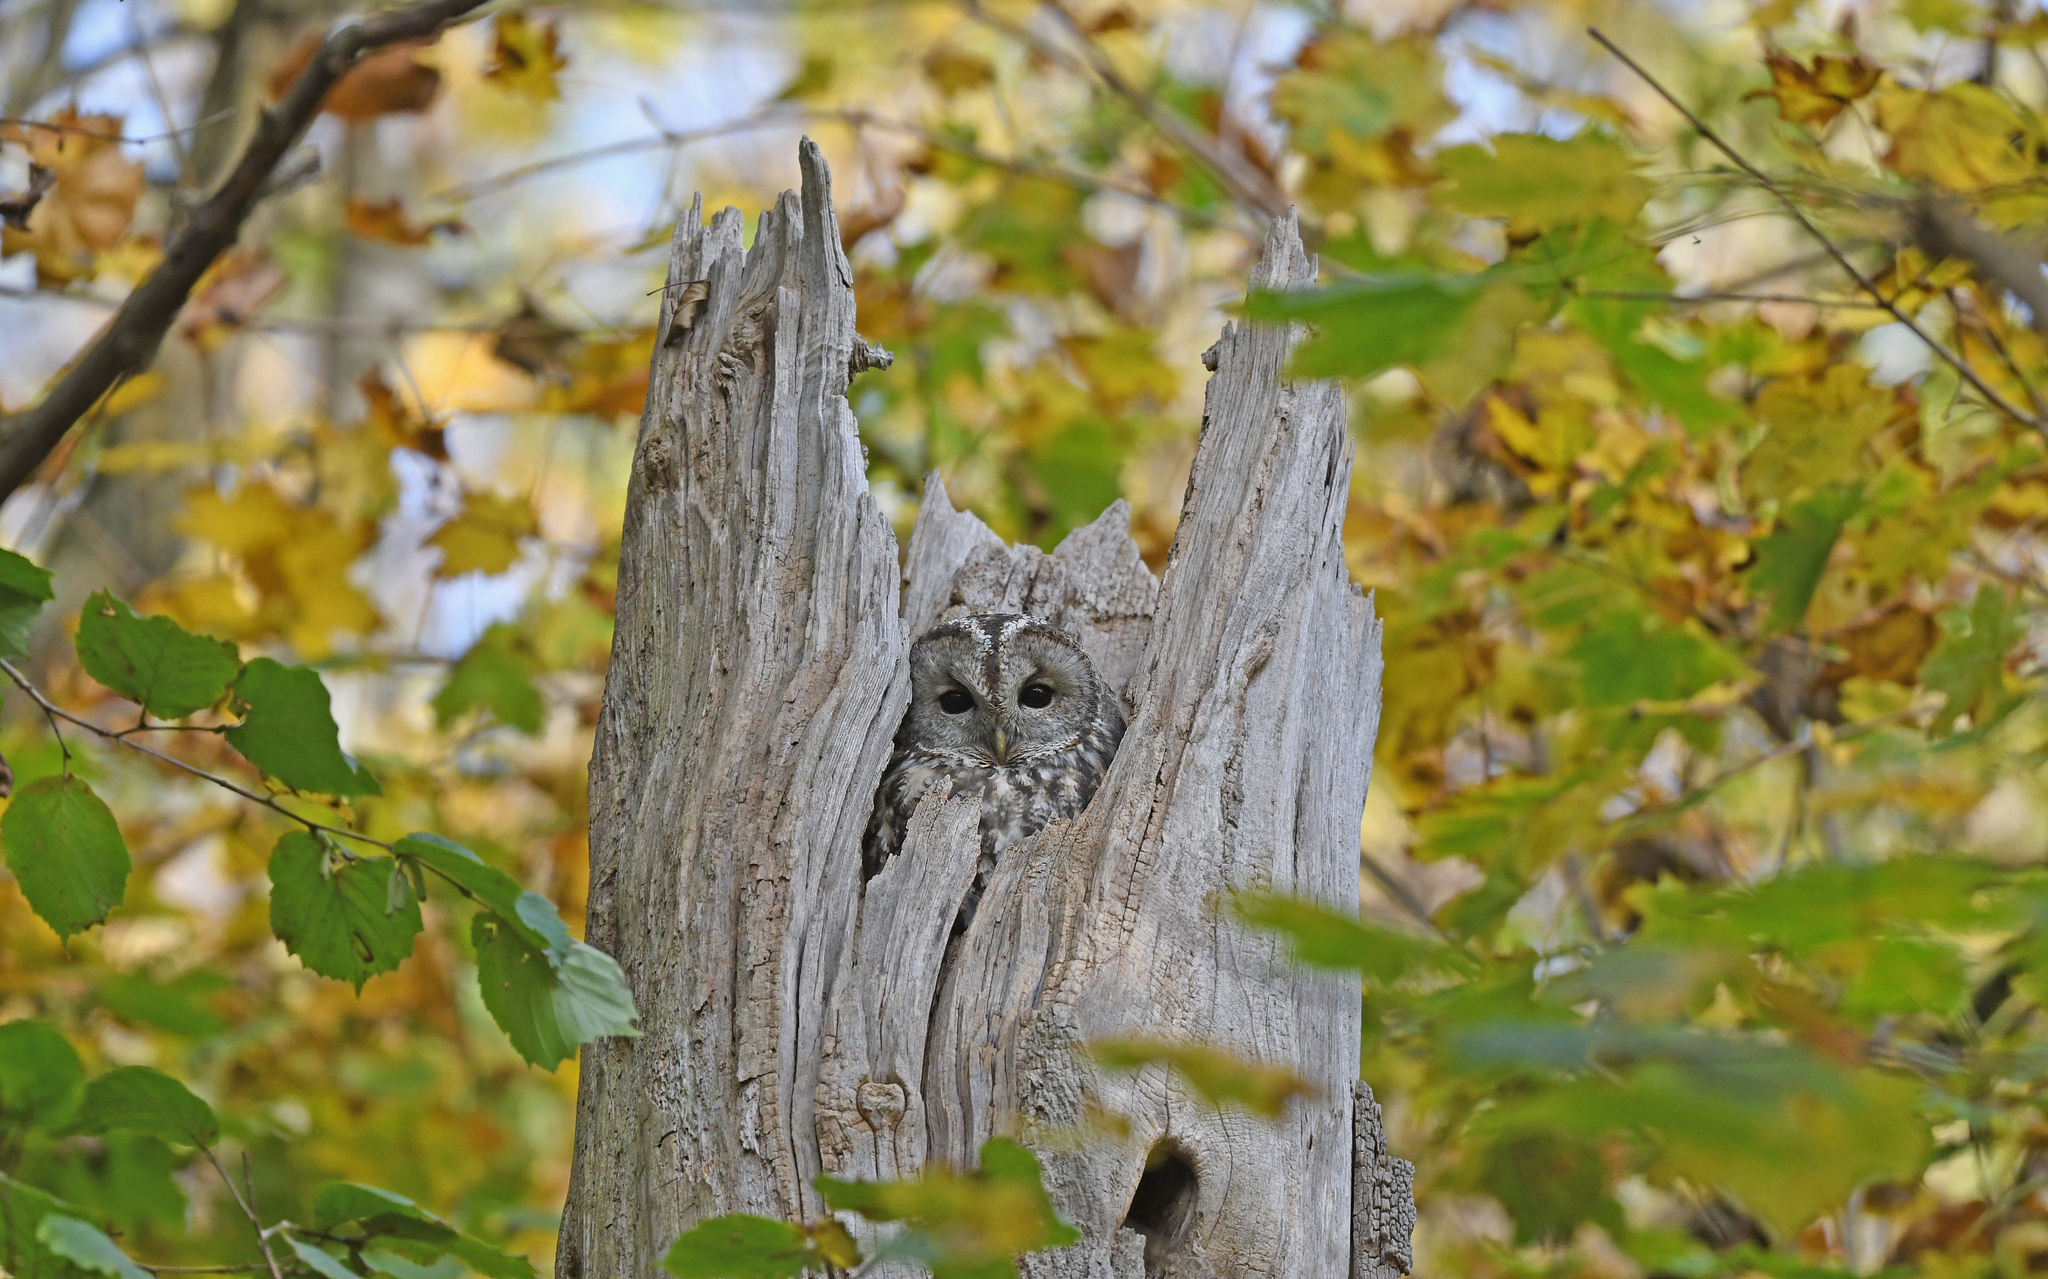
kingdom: Animalia
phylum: Chordata
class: Aves
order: Strigiformes
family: Strigidae
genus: Strix
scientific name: Strix aluco
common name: Tawny owl
